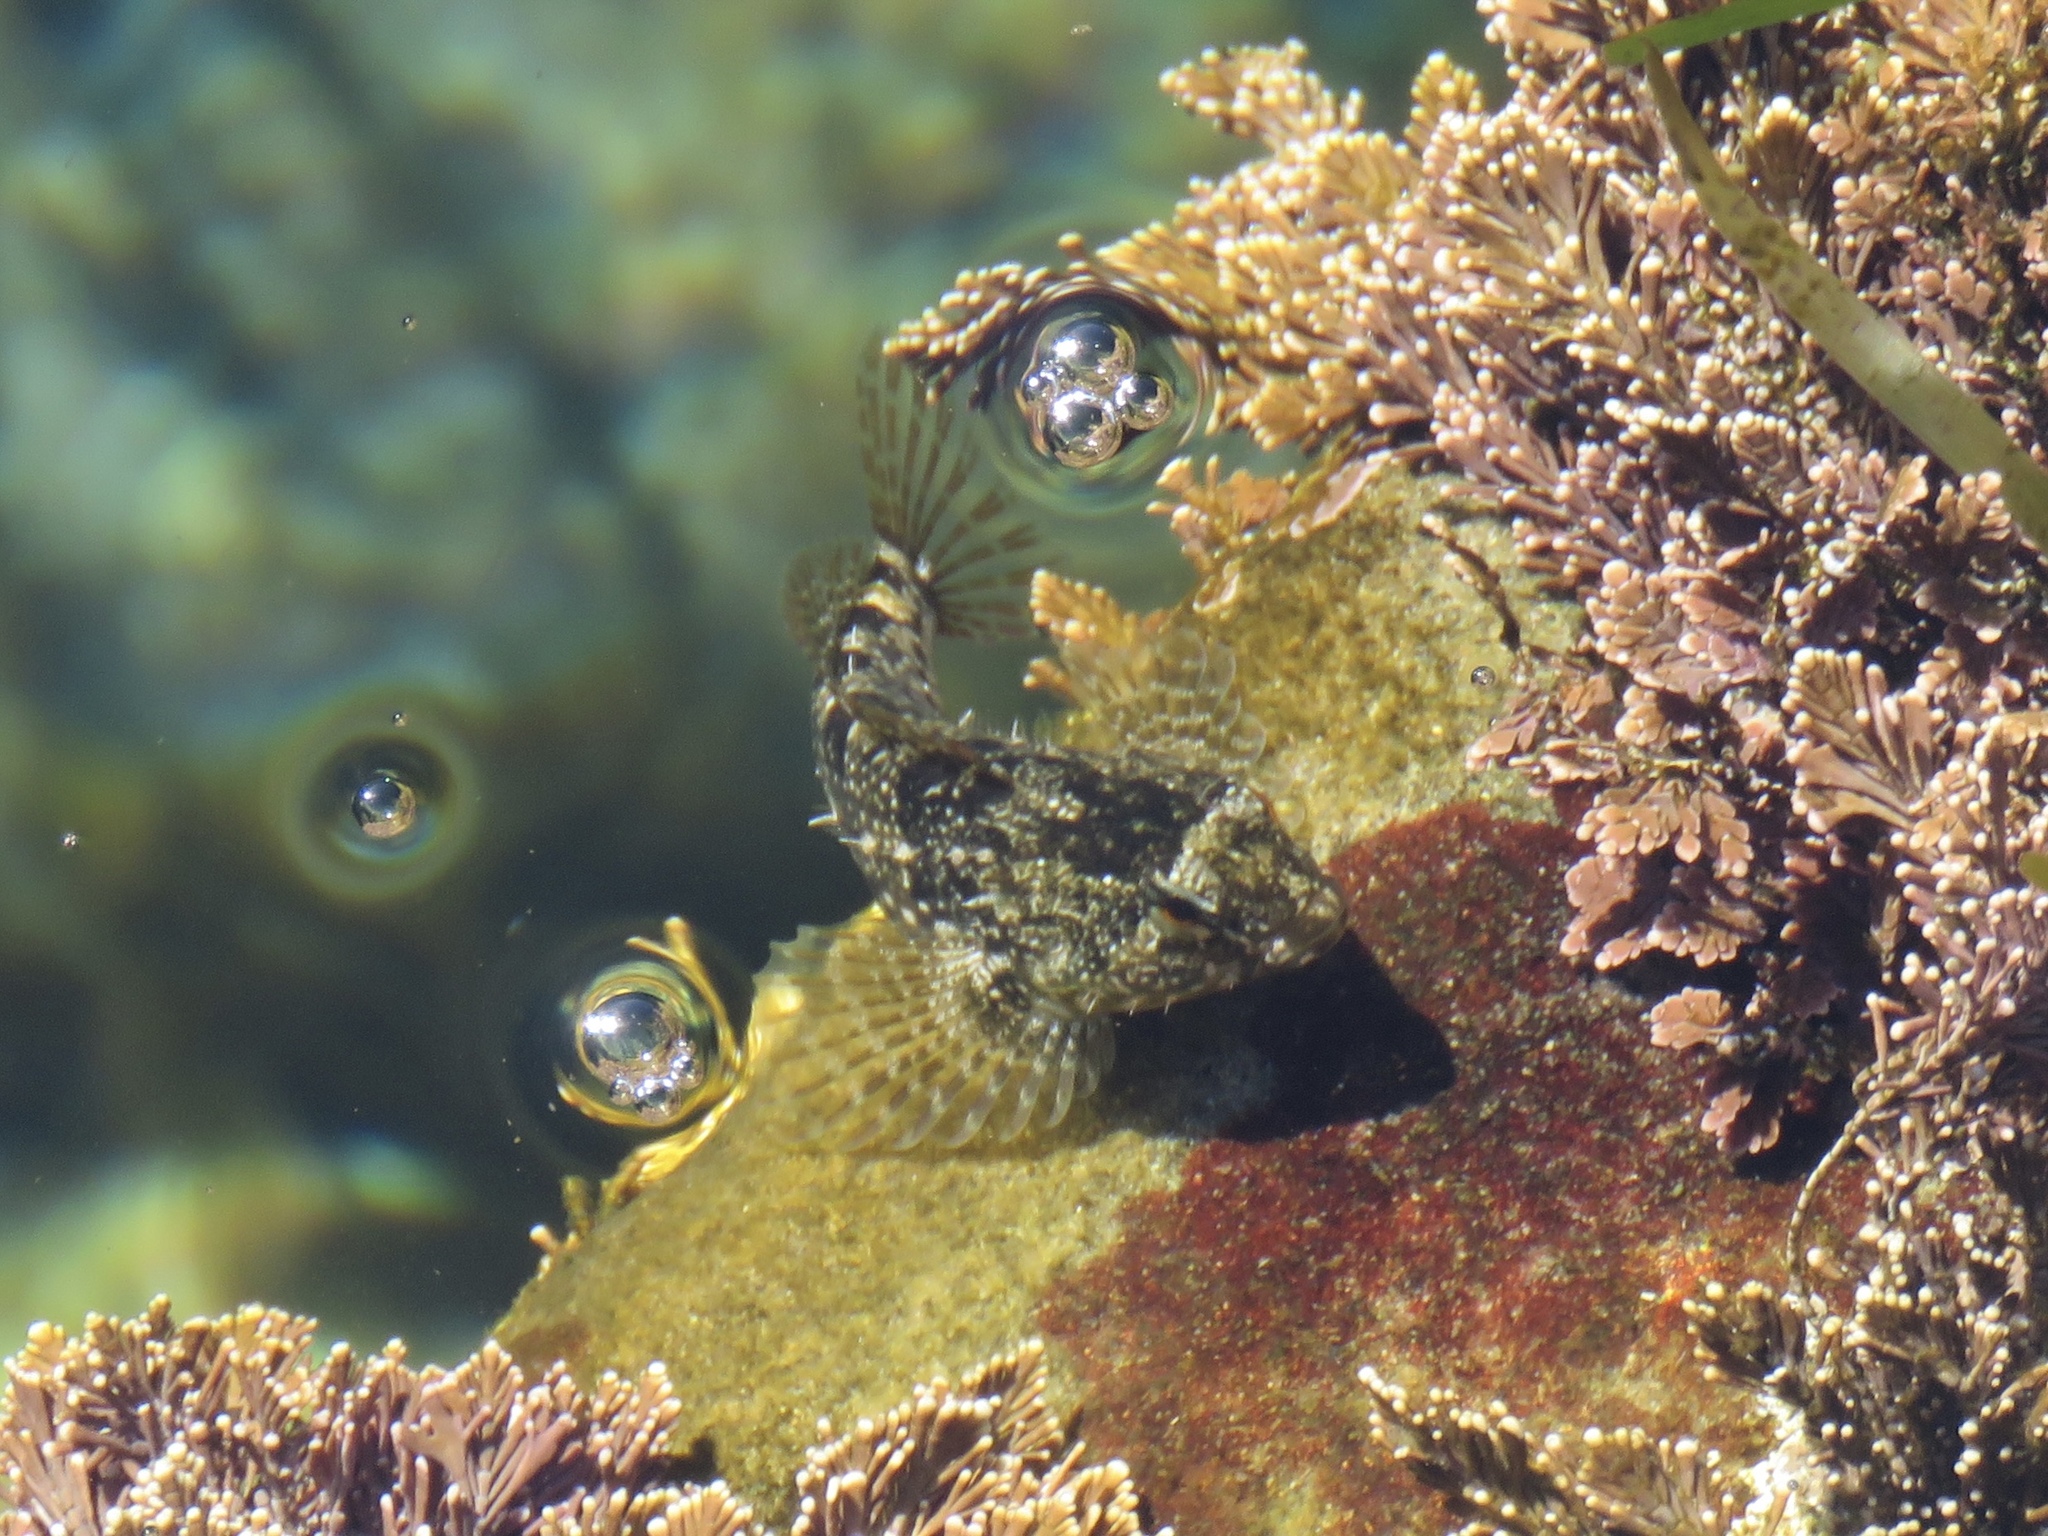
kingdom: Animalia
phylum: Chordata
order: Scorpaeniformes
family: Cottidae
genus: Oligocottus
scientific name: Oligocottus maculosus
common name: Tidepool sculpin
